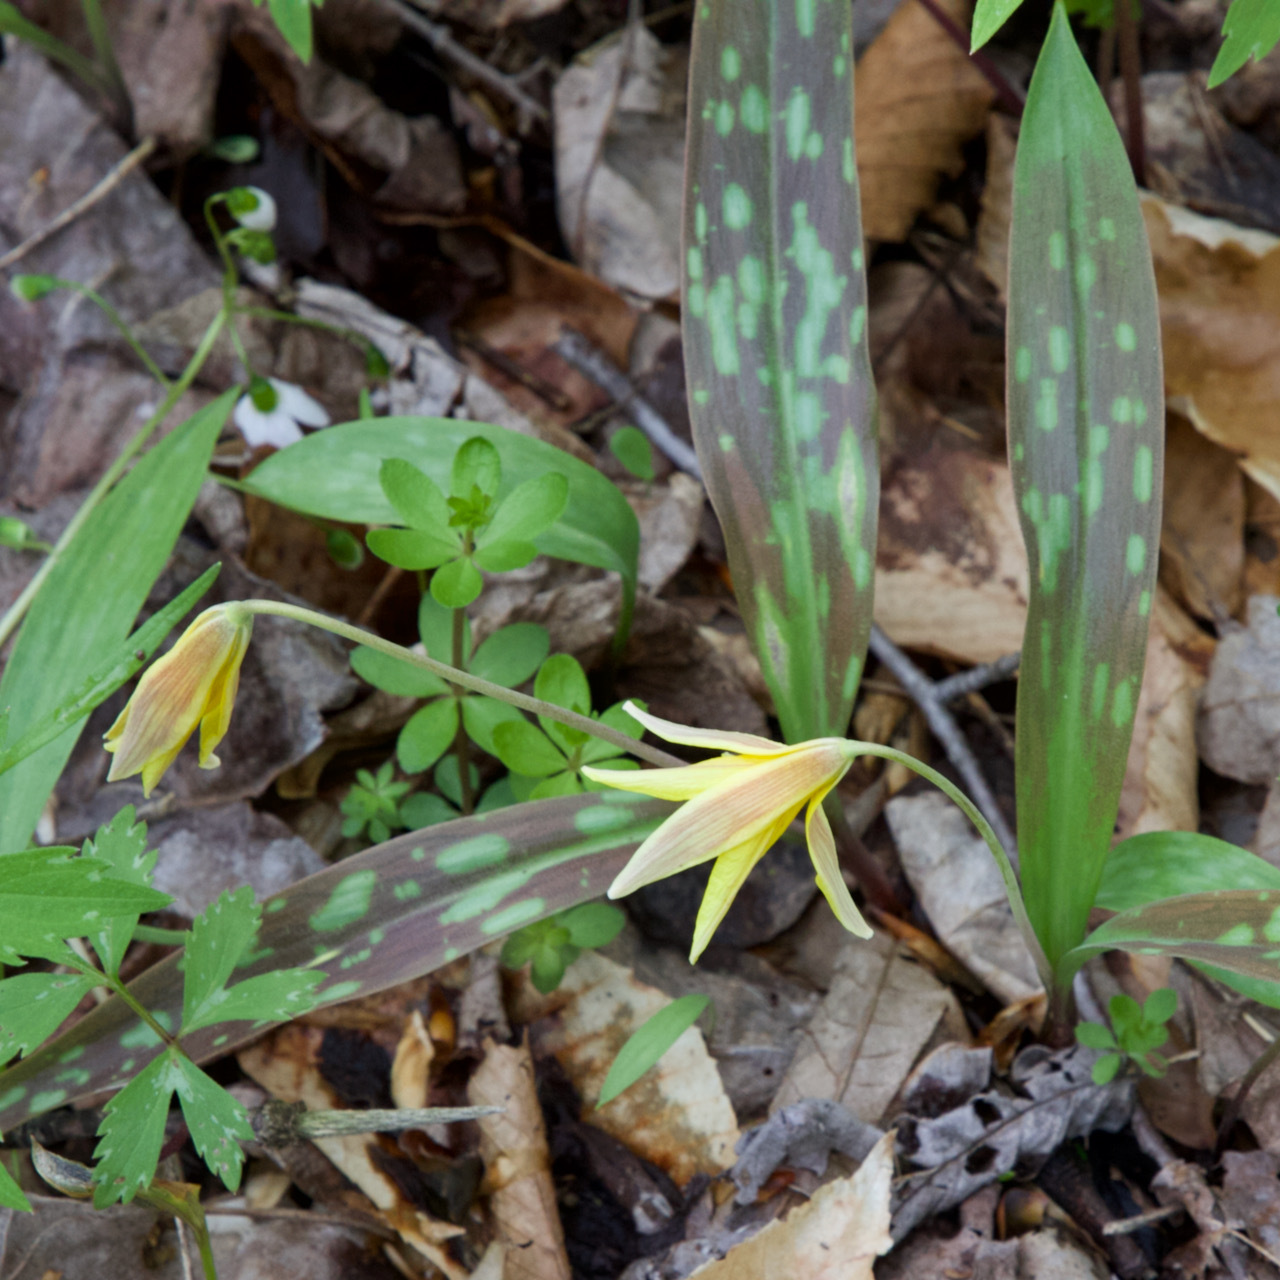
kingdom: Plantae
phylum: Tracheophyta
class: Liliopsida
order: Liliales
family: Liliaceae
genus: Erythronium
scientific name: Erythronium americanum
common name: Yellow adder's-tongue
